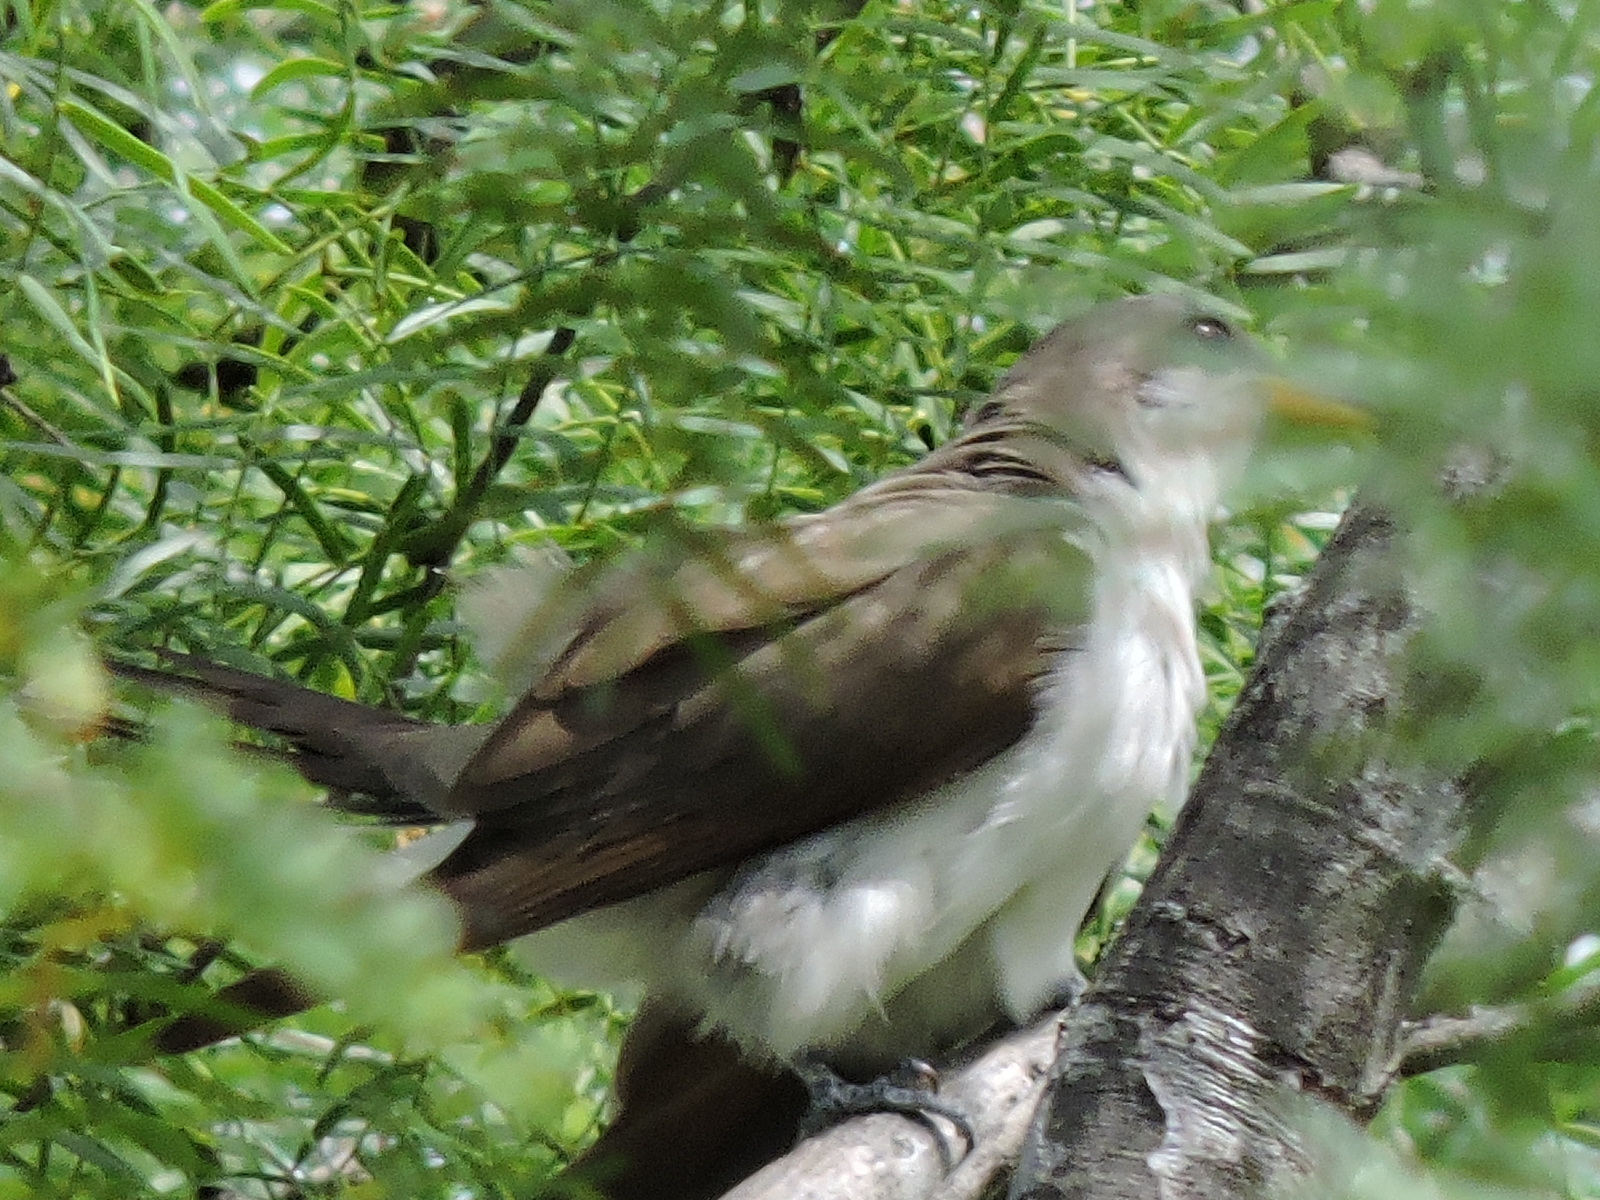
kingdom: Animalia
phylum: Chordata
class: Aves
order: Cuculiformes
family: Cuculidae
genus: Coccyzus
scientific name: Coccyzus americanus
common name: Yellow-billed cuckoo
